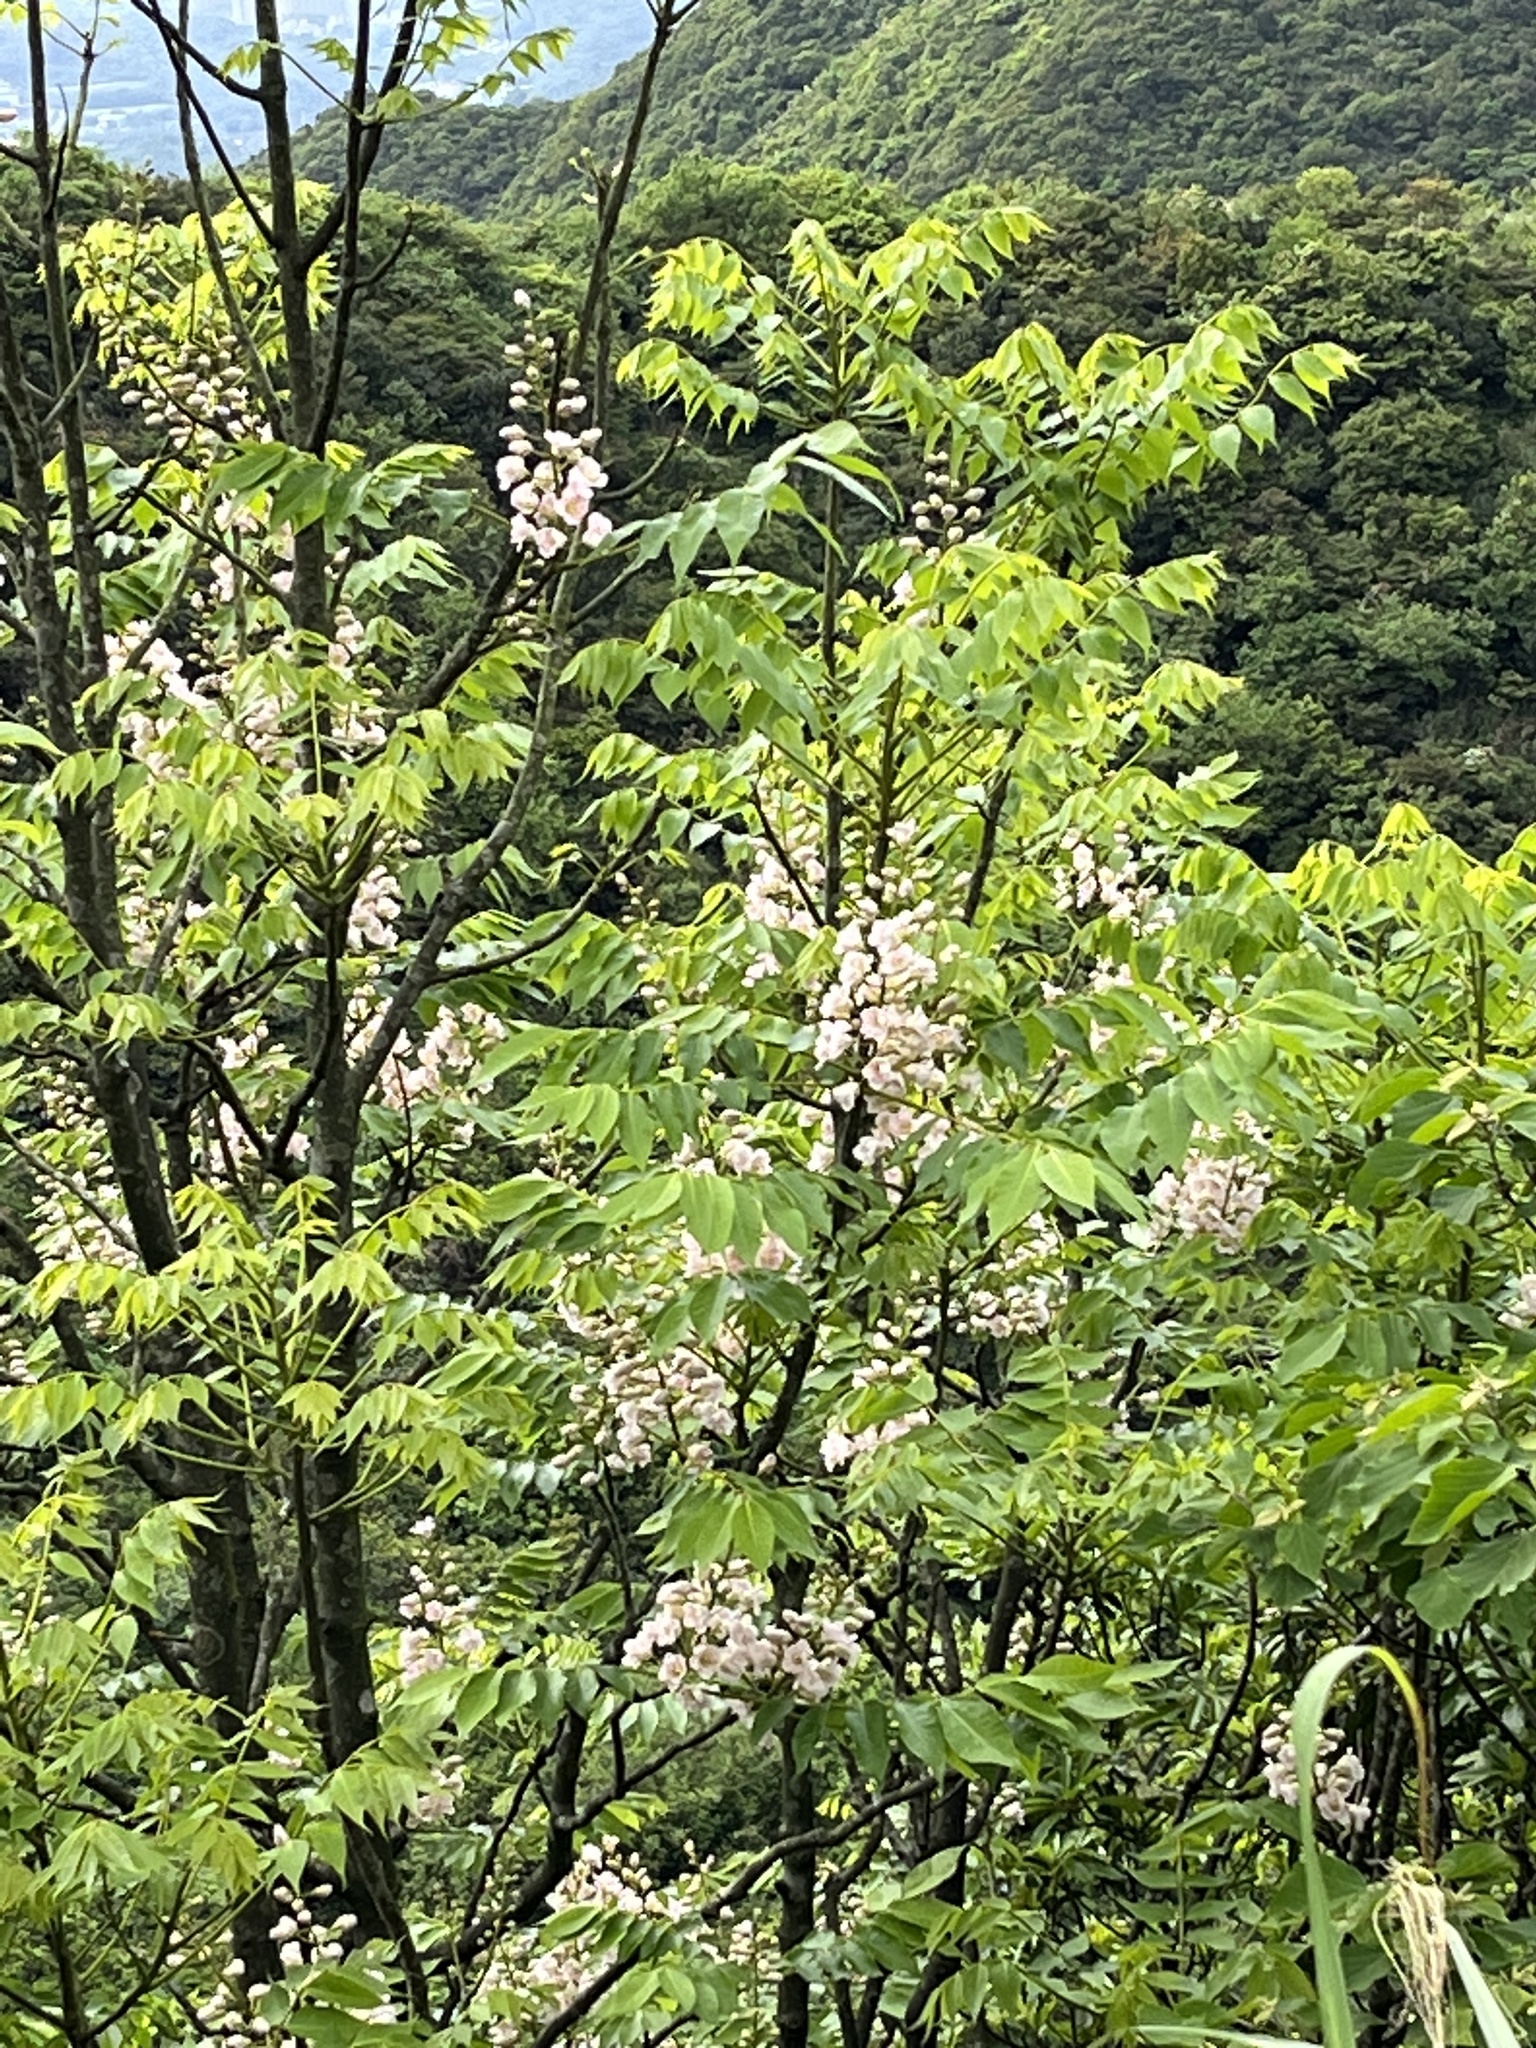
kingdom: Plantae
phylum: Tracheophyta
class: Magnoliopsida
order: Brassicales
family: Akaniaceae
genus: Bretschneidera
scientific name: Bretschneidera sinensis
